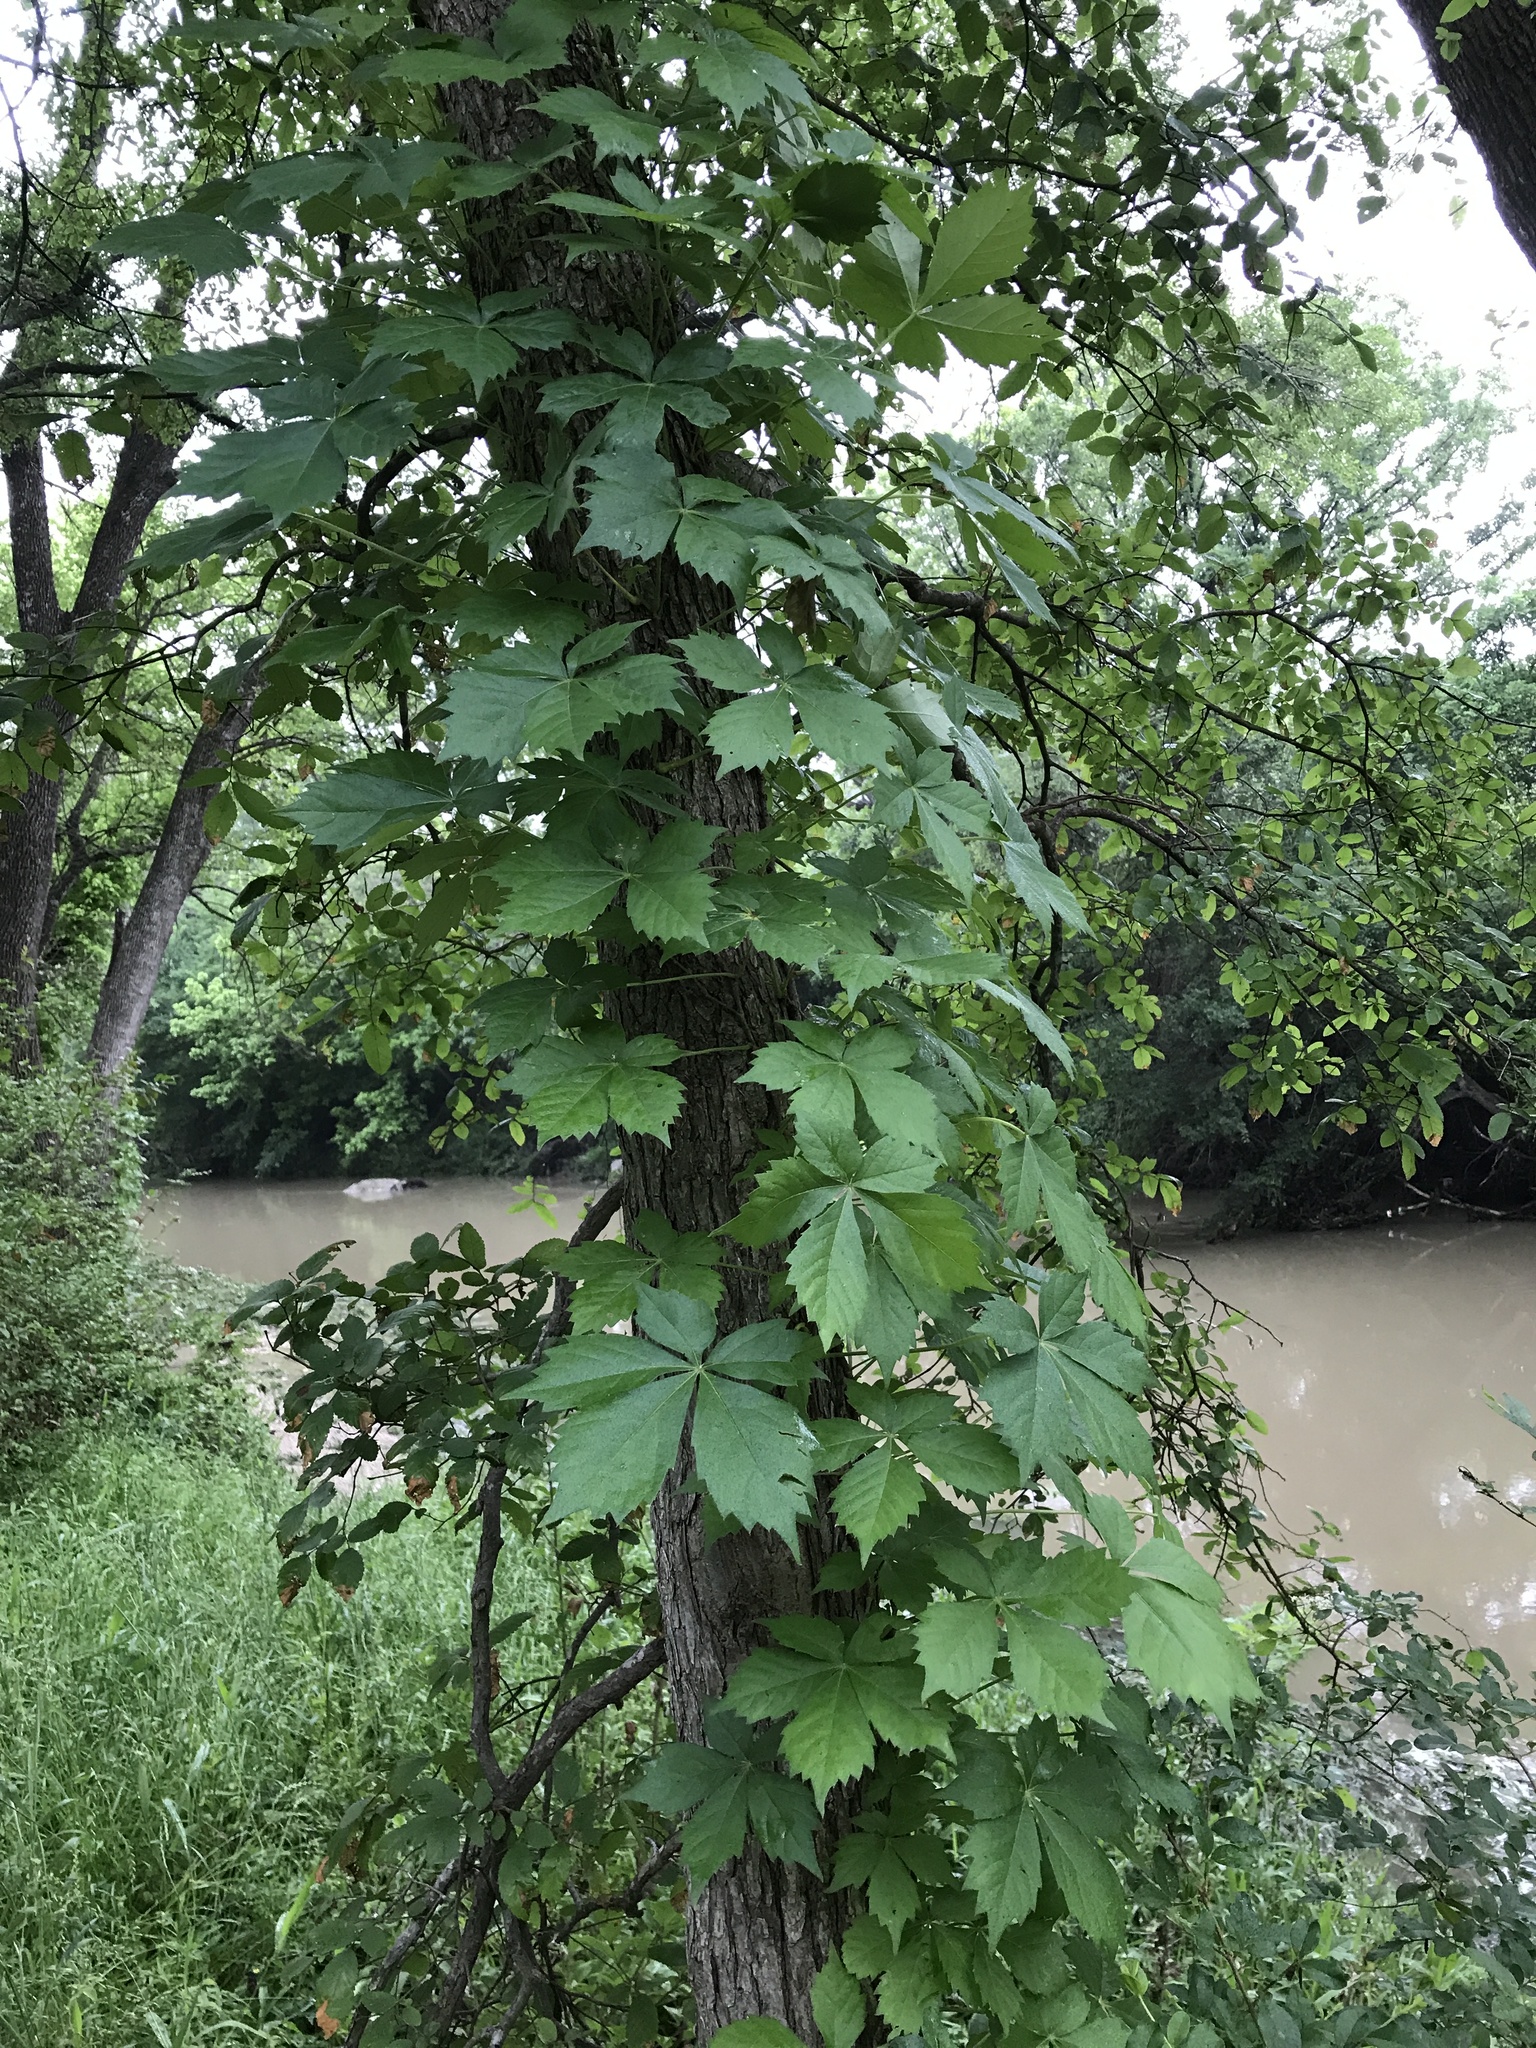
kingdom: Plantae
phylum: Tracheophyta
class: Magnoliopsida
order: Vitales
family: Vitaceae
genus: Parthenocissus
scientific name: Parthenocissus quinquefolia
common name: Virginia-creeper
